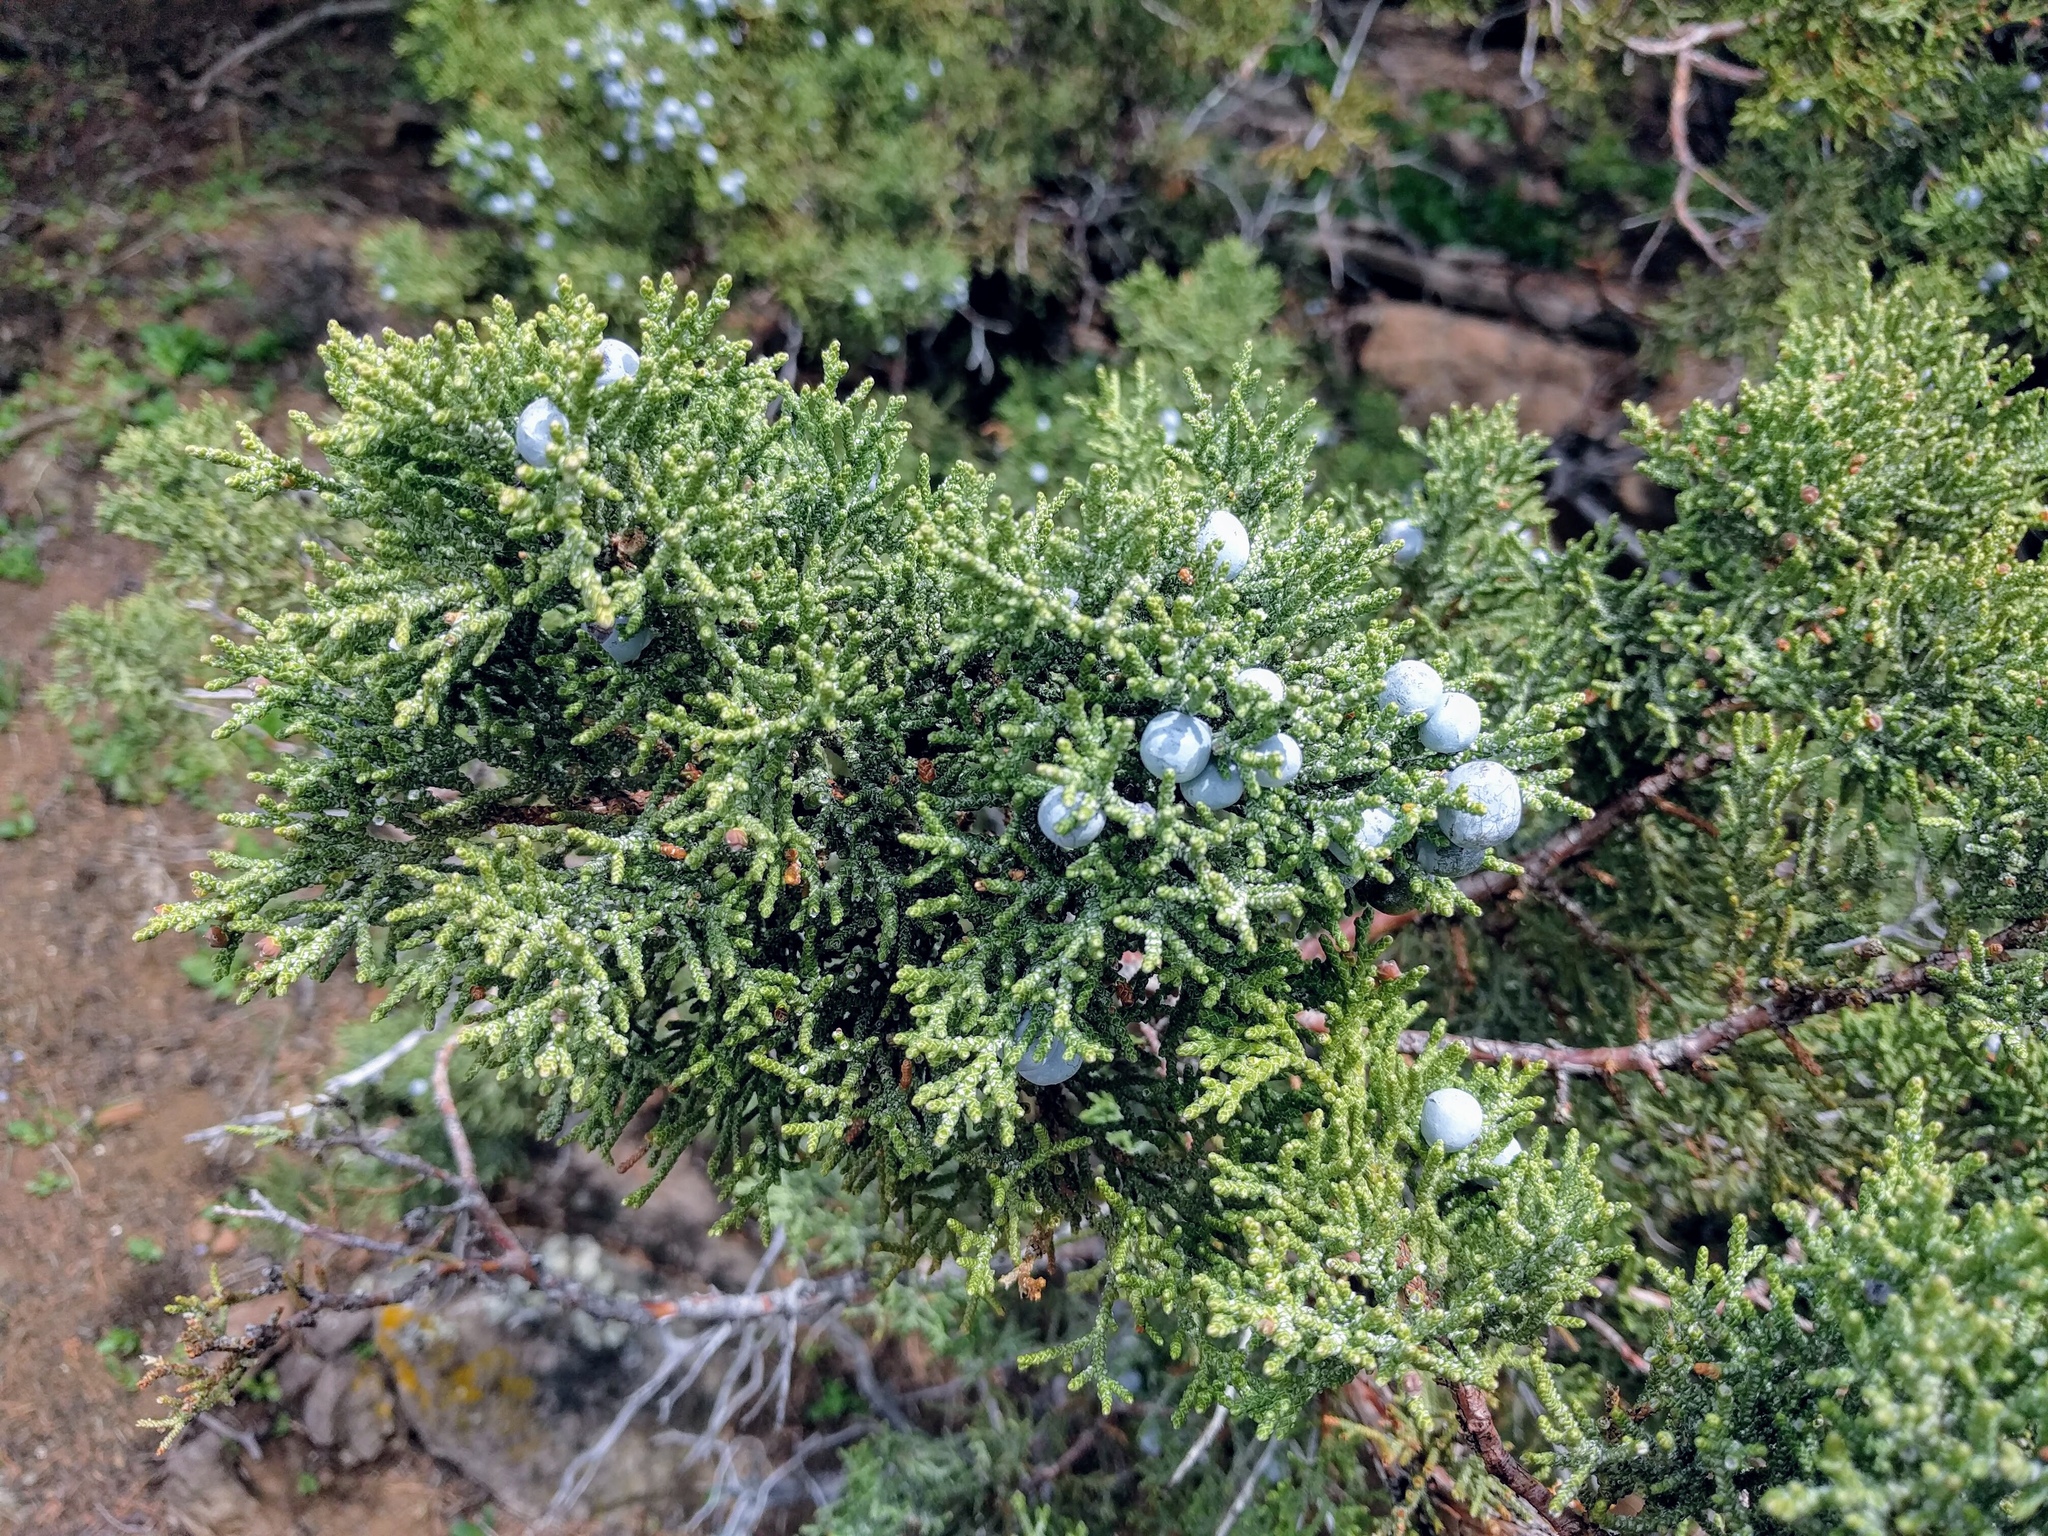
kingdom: Plantae
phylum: Tracheophyta
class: Pinopsida
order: Pinales
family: Cupressaceae
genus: Juniperus
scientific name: Juniperus occidentalis
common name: Western juniper
